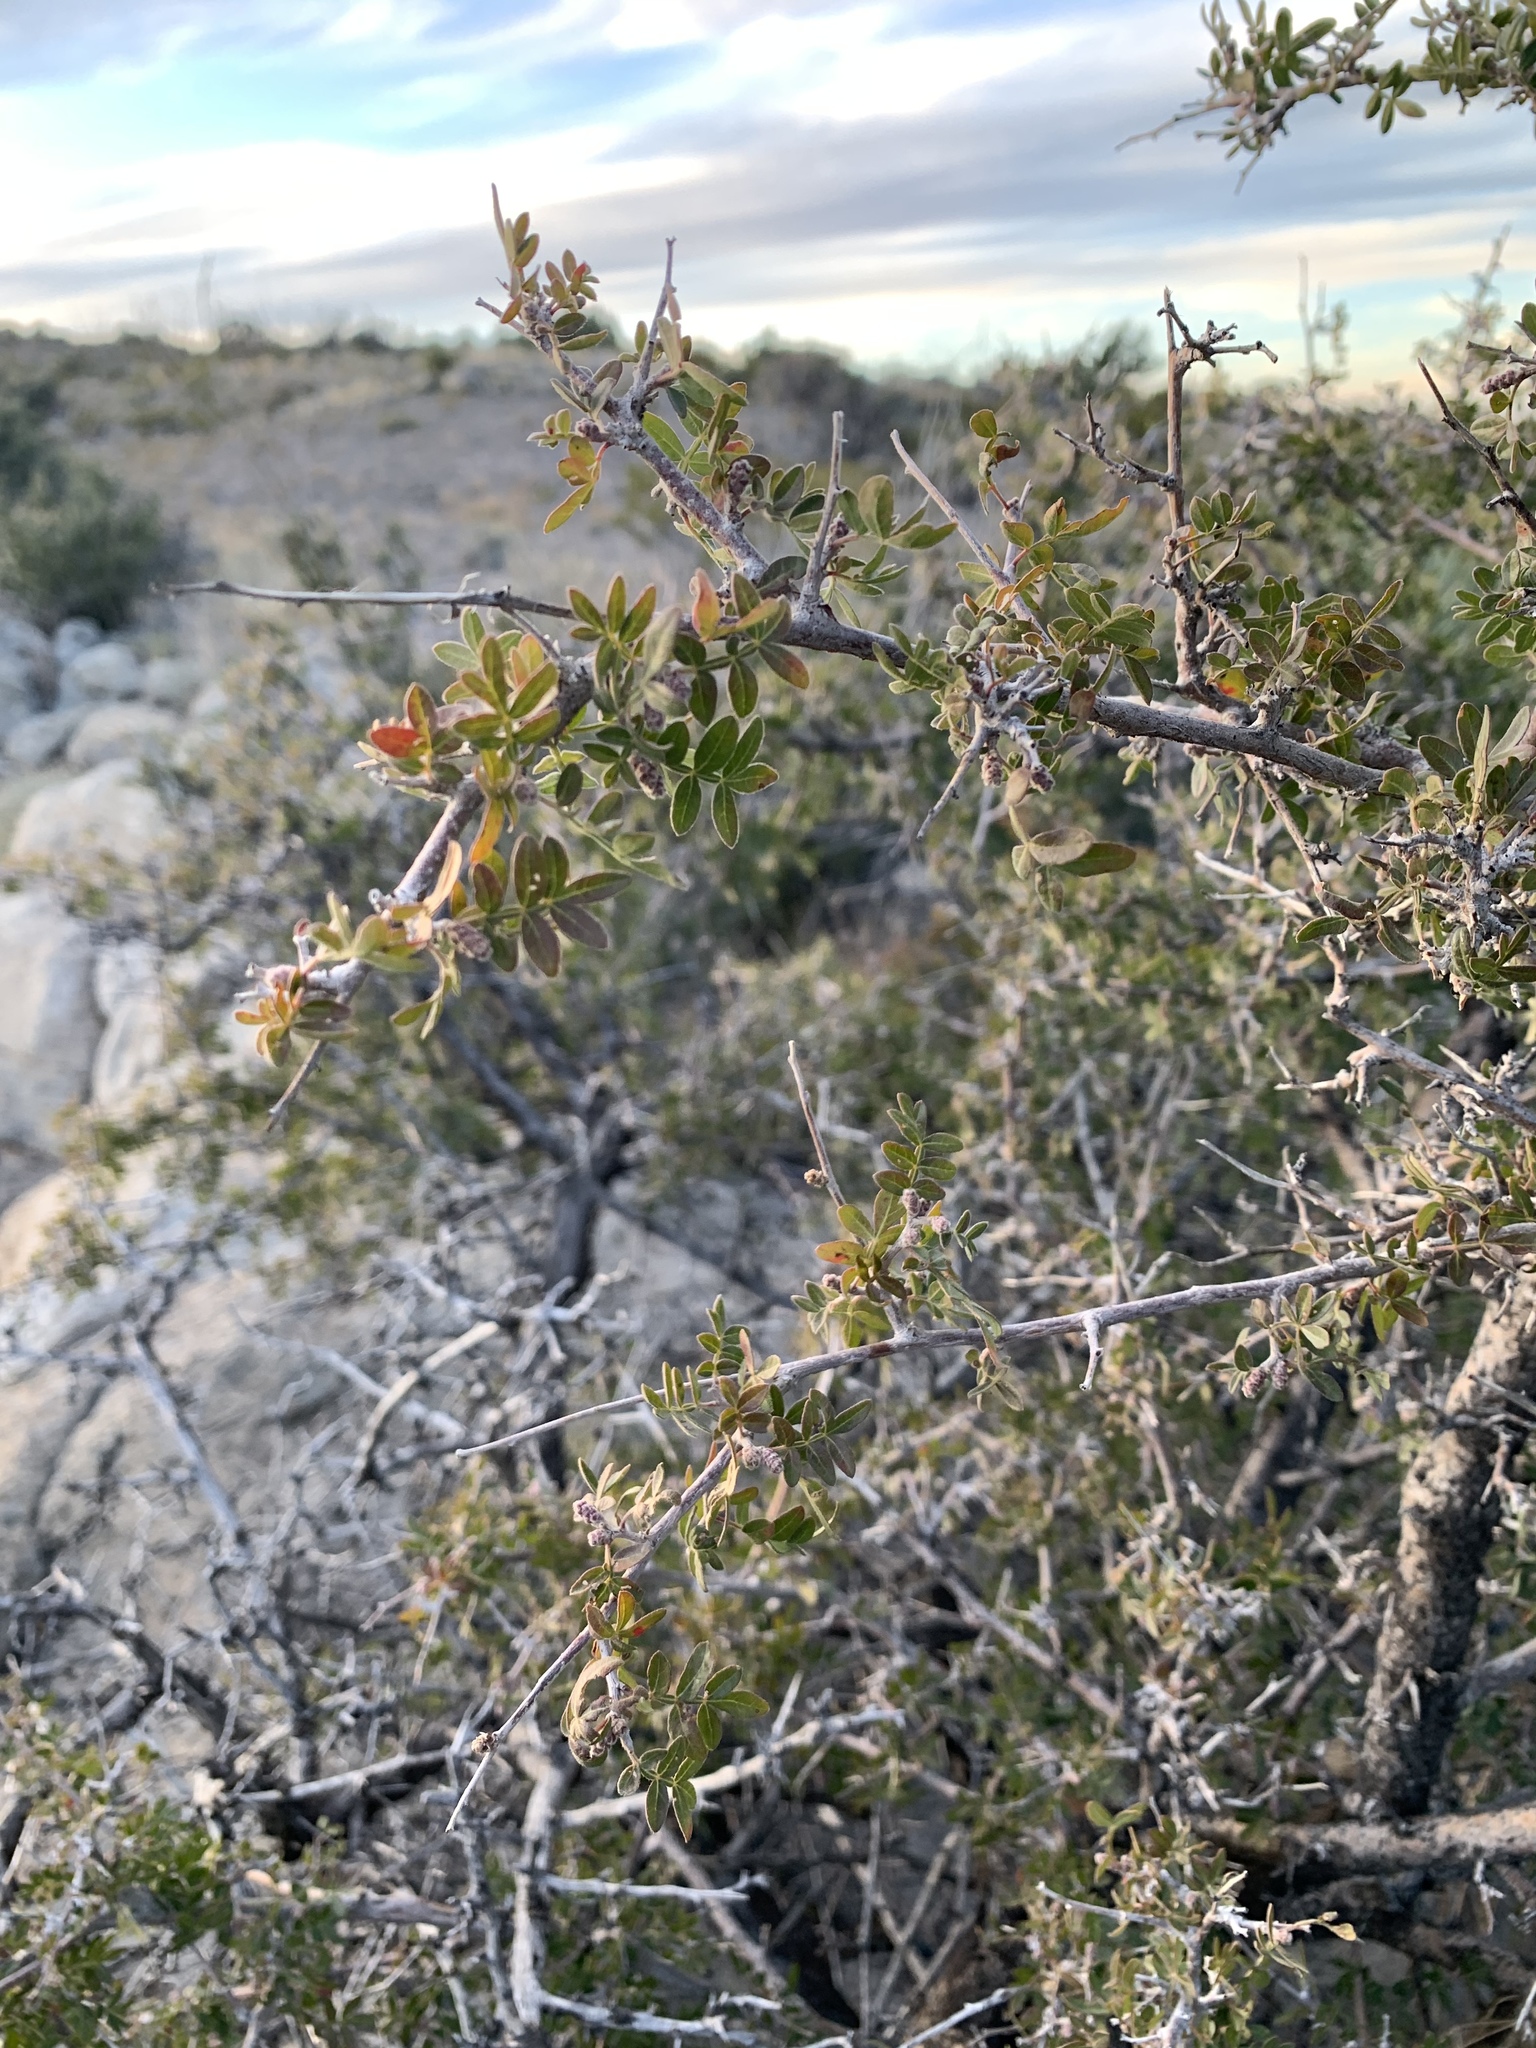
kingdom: Plantae
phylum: Tracheophyta
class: Magnoliopsida
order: Sapindales
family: Anacardiaceae
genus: Rhus
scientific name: Rhus microphylla
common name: Desert sumac
